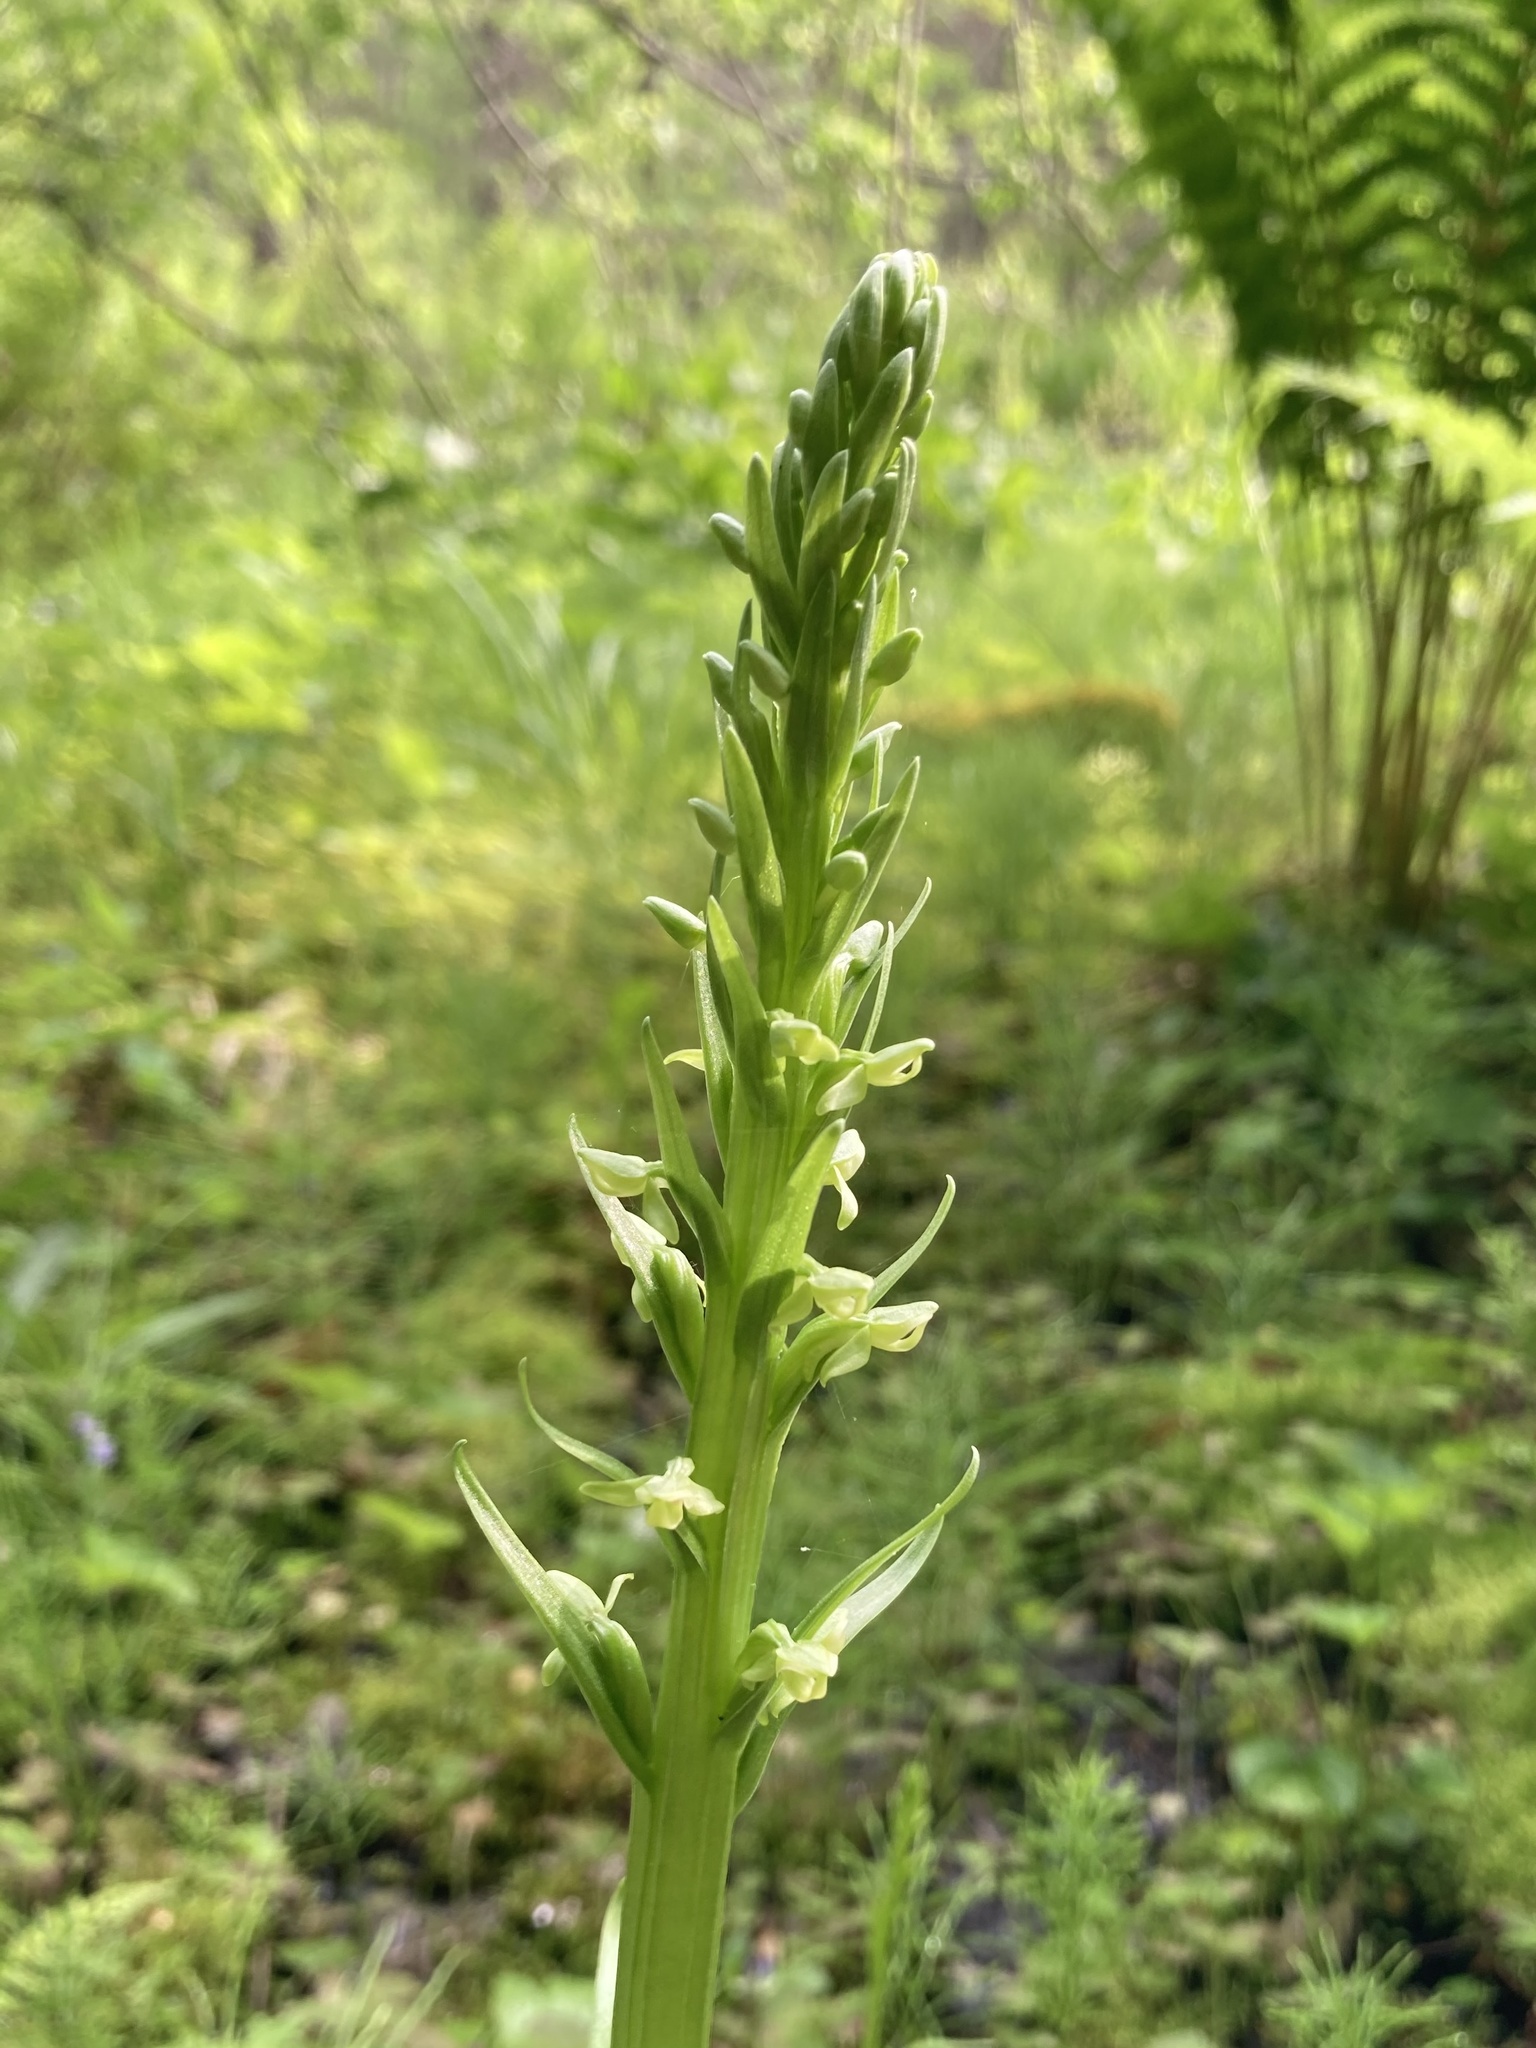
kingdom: Plantae
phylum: Tracheophyta
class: Liliopsida
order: Asparagales
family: Orchidaceae
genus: Platanthera
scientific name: Platanthera huronensis
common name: Fragrant green orchid
